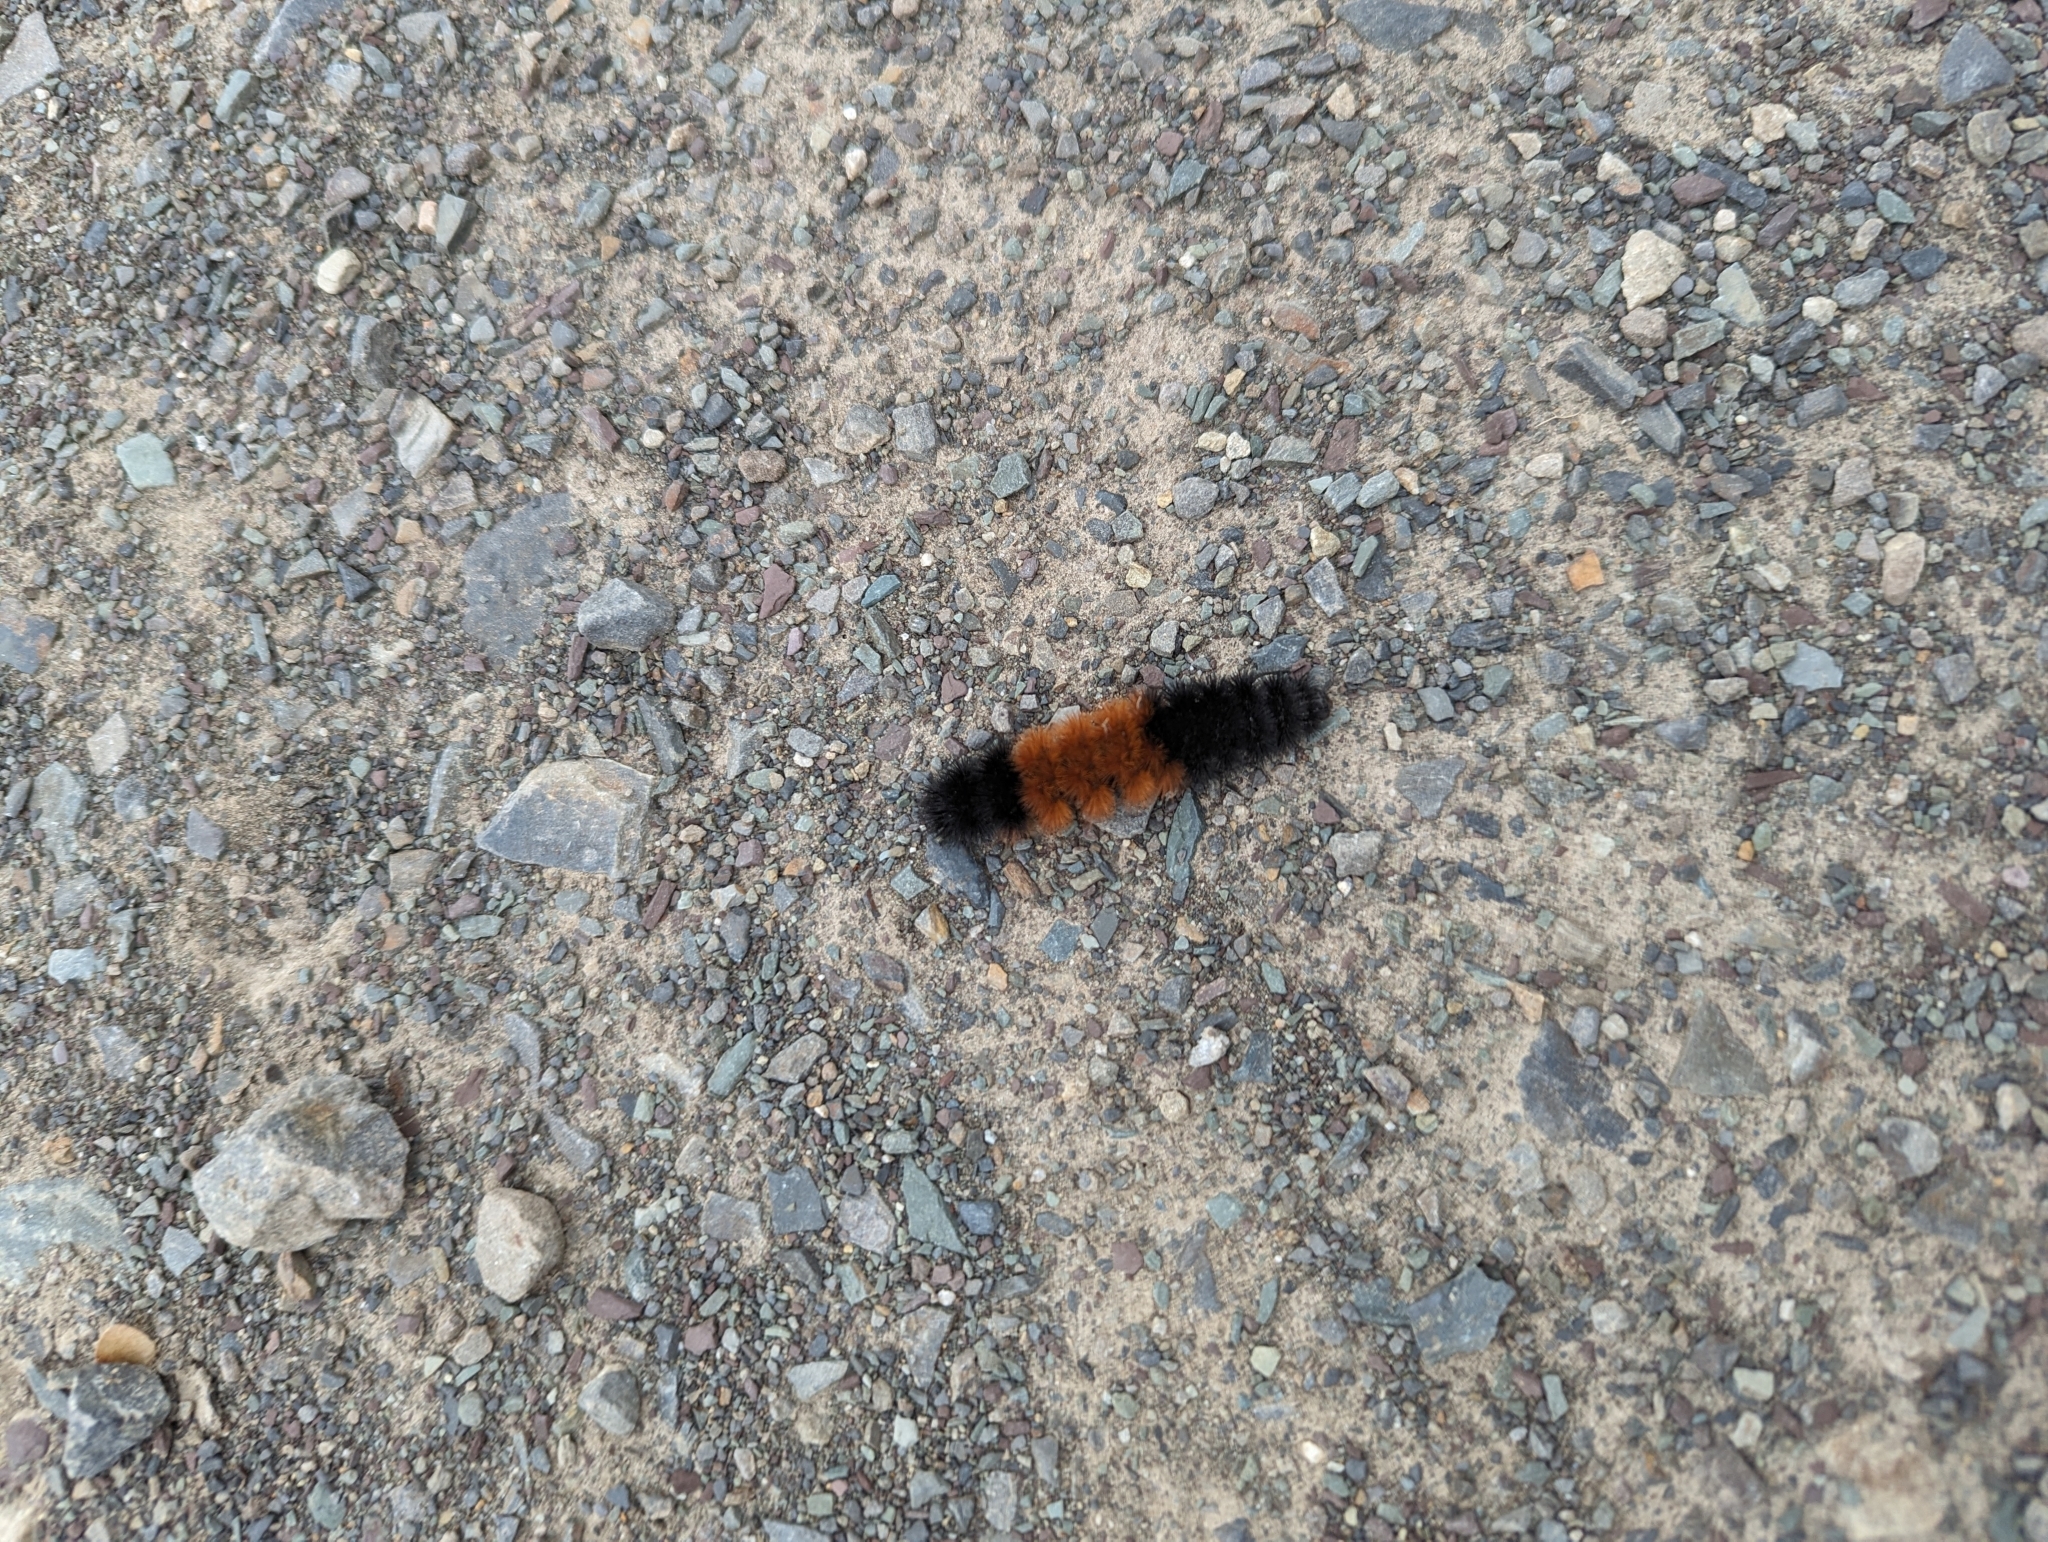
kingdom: Animalia
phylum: Arthropoda
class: Insecta
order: Lepidoptera
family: Erebidae
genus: Pyrrharctia
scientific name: Pyrrharctia isabella
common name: Isabella tiger moth
